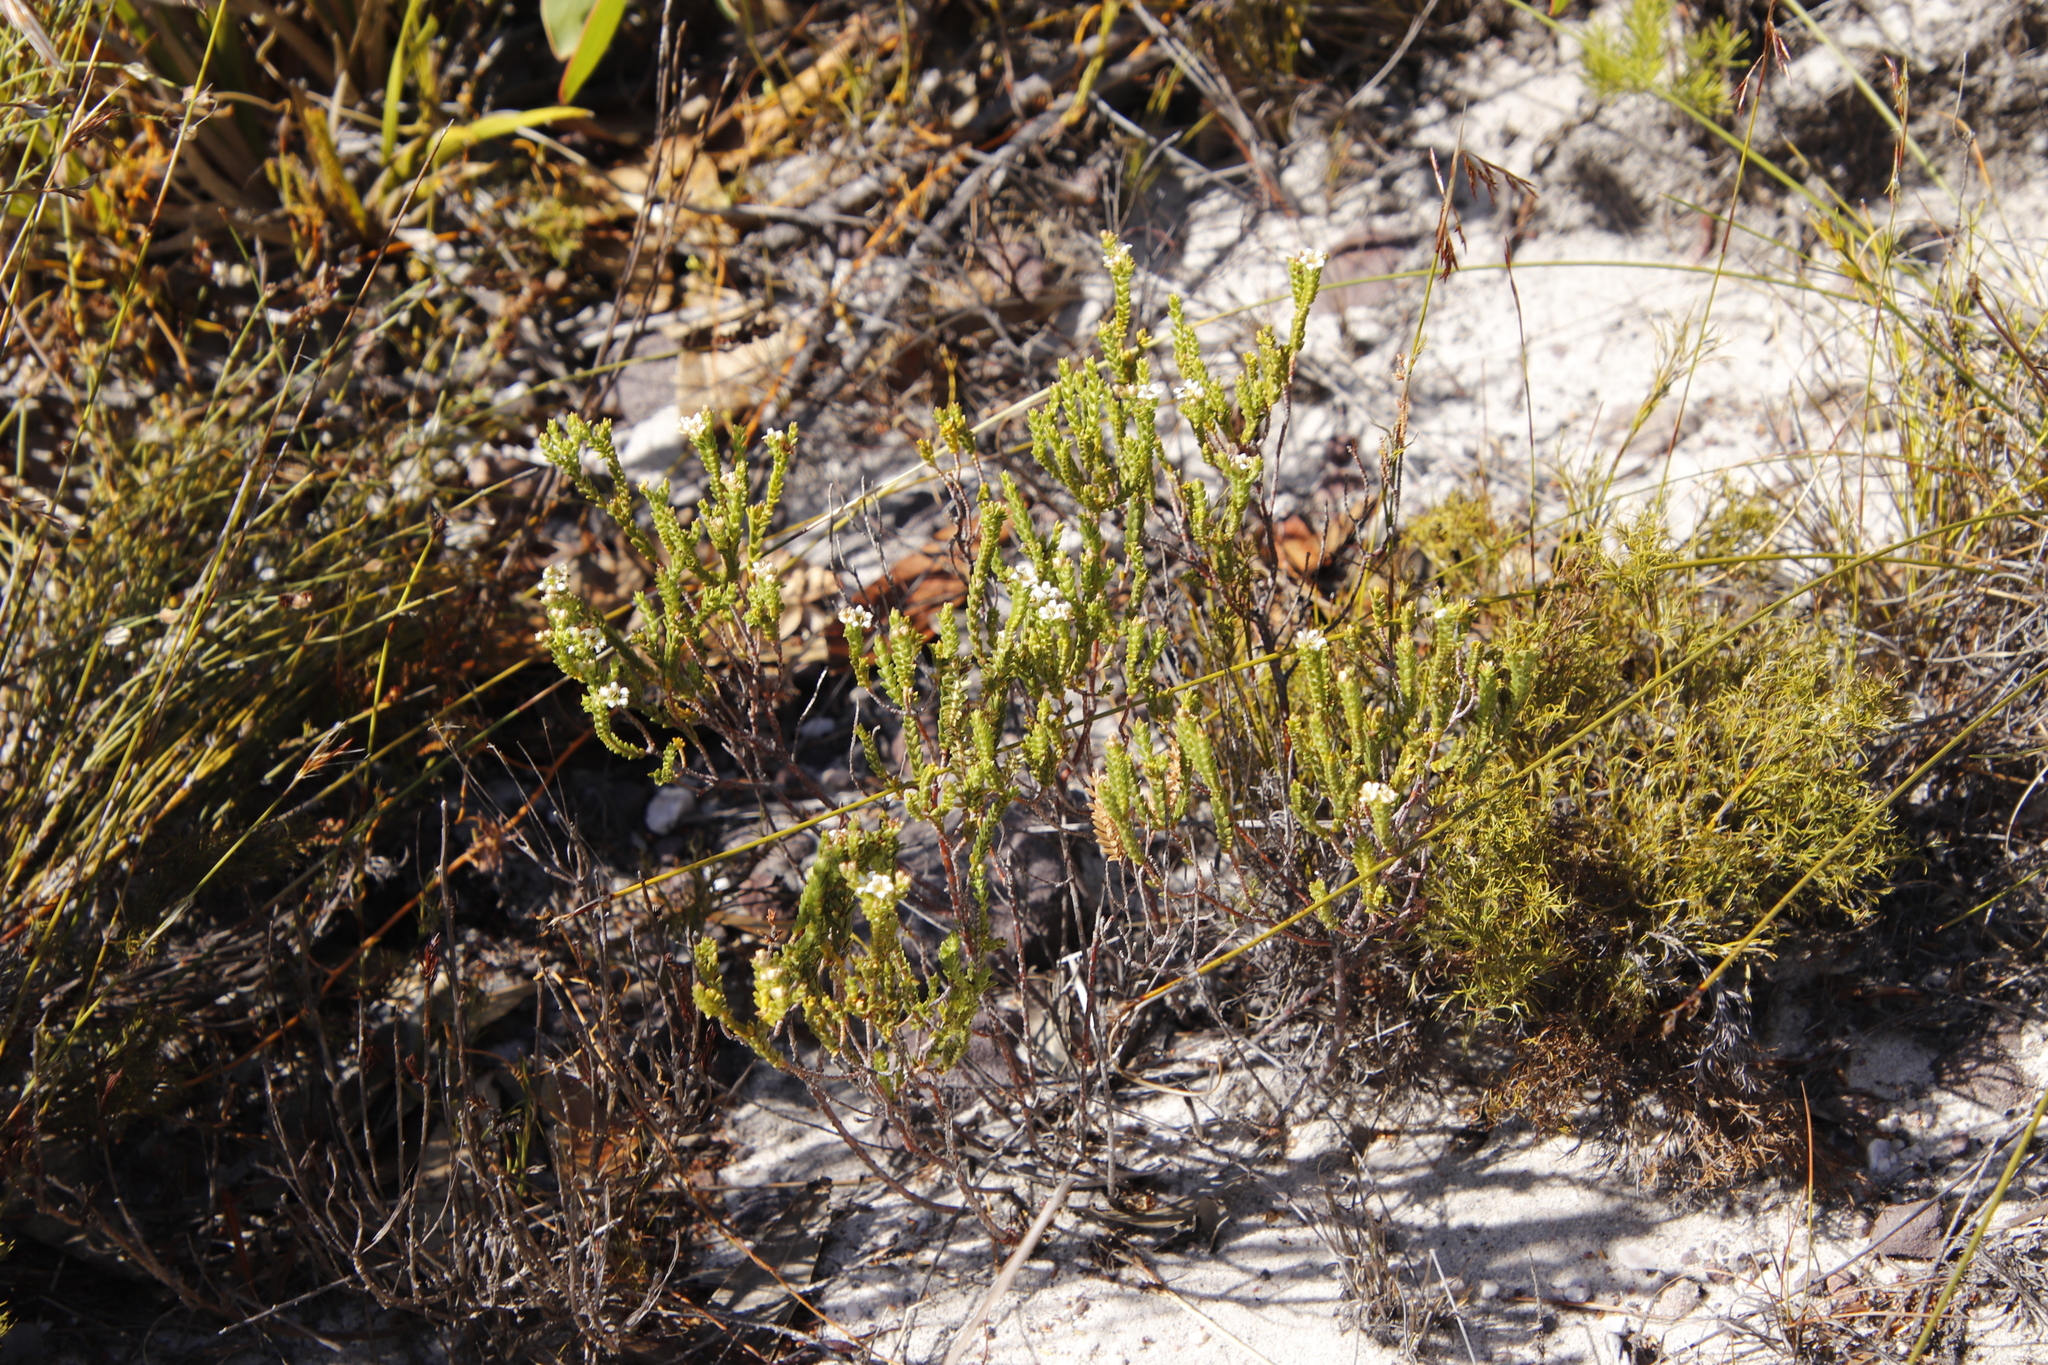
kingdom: Plantae
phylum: Tracheophyta
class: Magnoliopsida
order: Sapindales
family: Rutaceae
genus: Diosma
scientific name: Diosma oppositifolia
